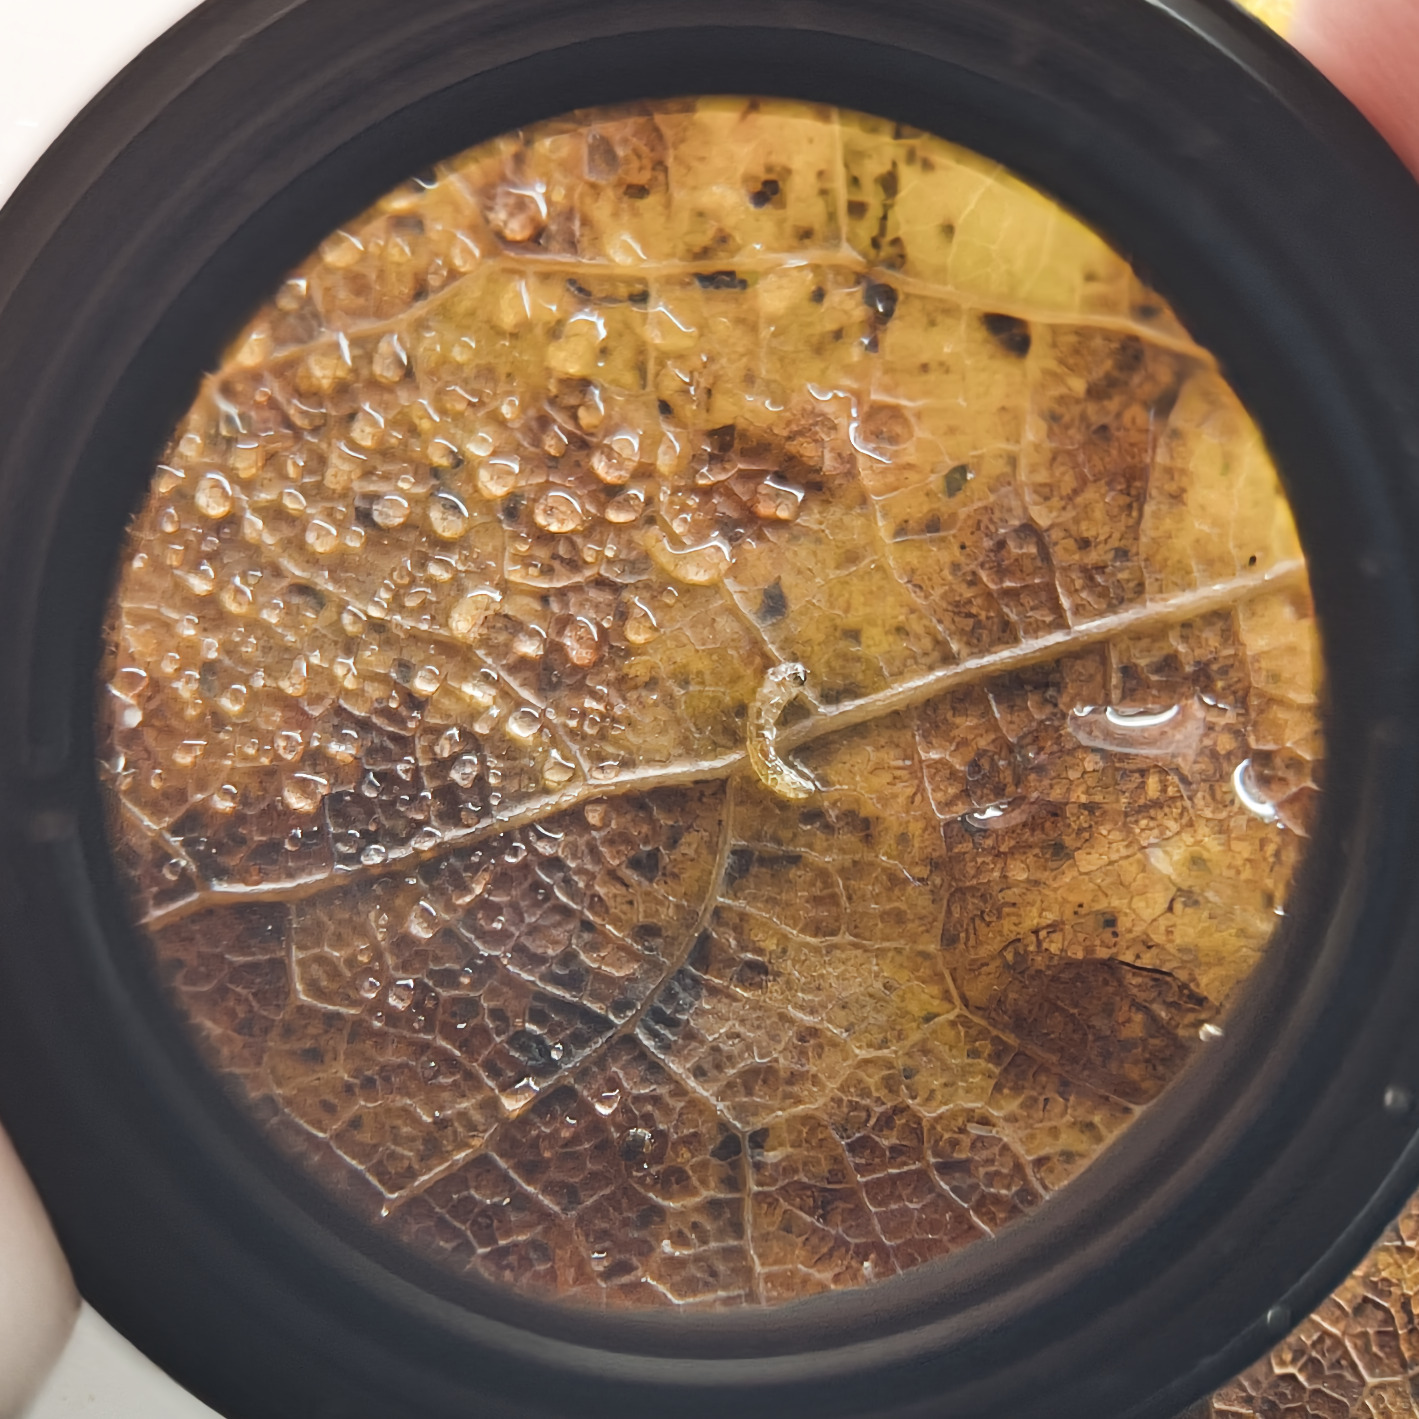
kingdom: Animalia
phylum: Arthropoda
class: Insecta
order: Lepidoptera
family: Nepticulidae
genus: Ectoedemia
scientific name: Ectoedemia argyropeza
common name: Virgin pigmy
